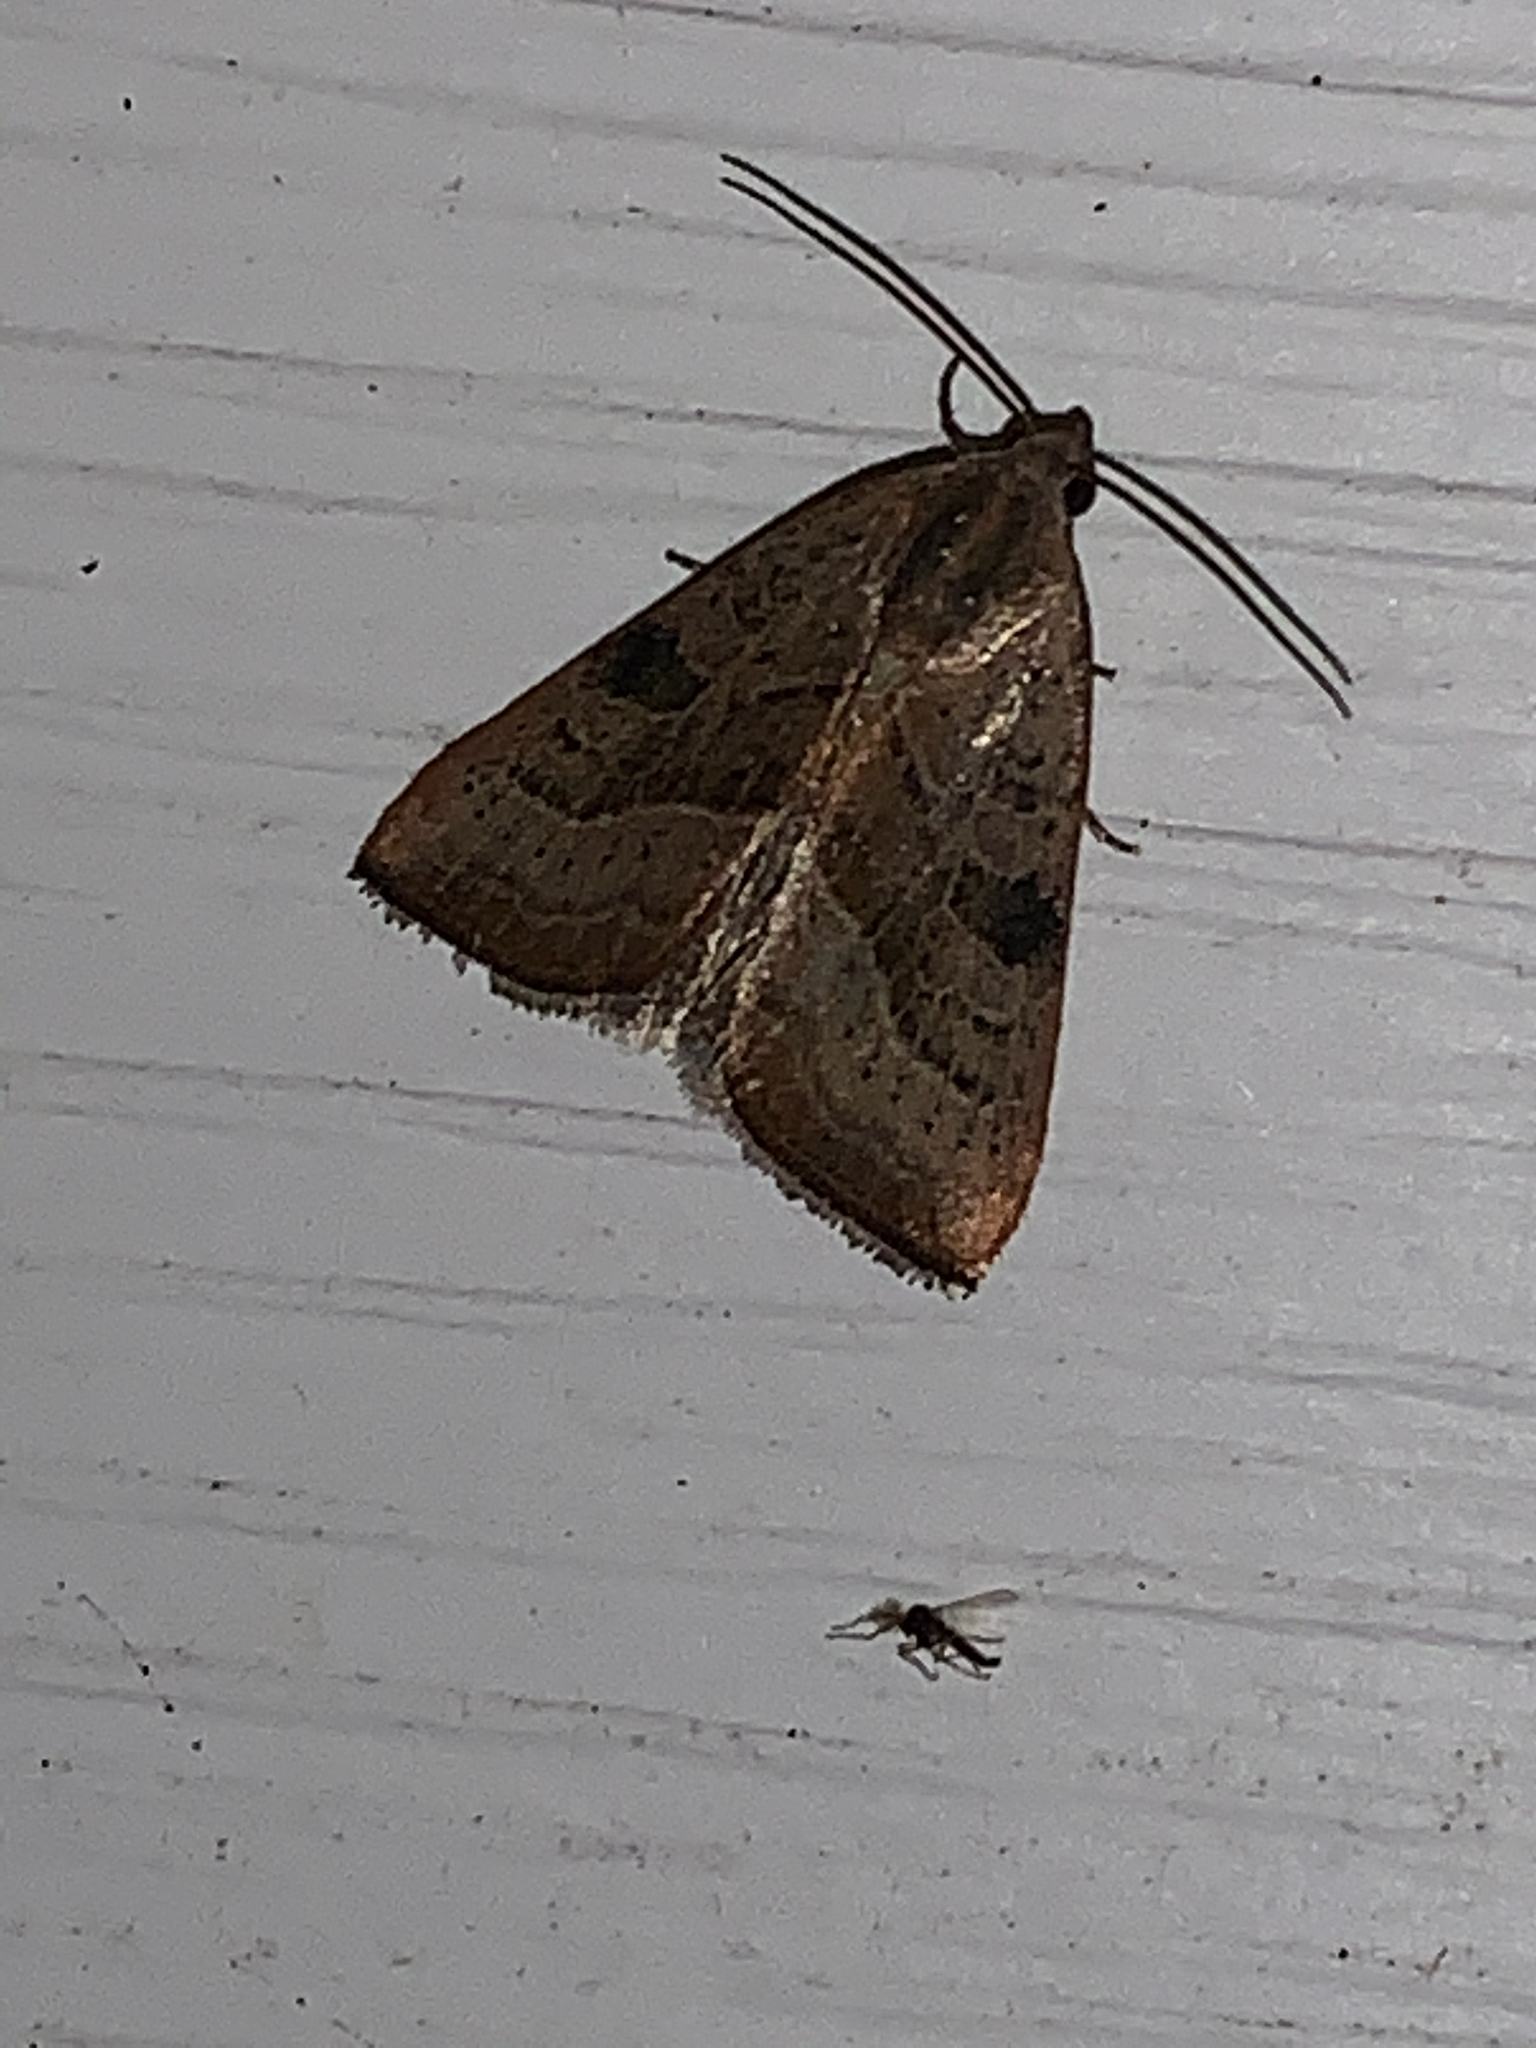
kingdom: Animalia
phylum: Arthropoda
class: Insecta
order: Lepidoptera
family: Noctuidae
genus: Galgula
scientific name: Galgula partita
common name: Wedgeling
